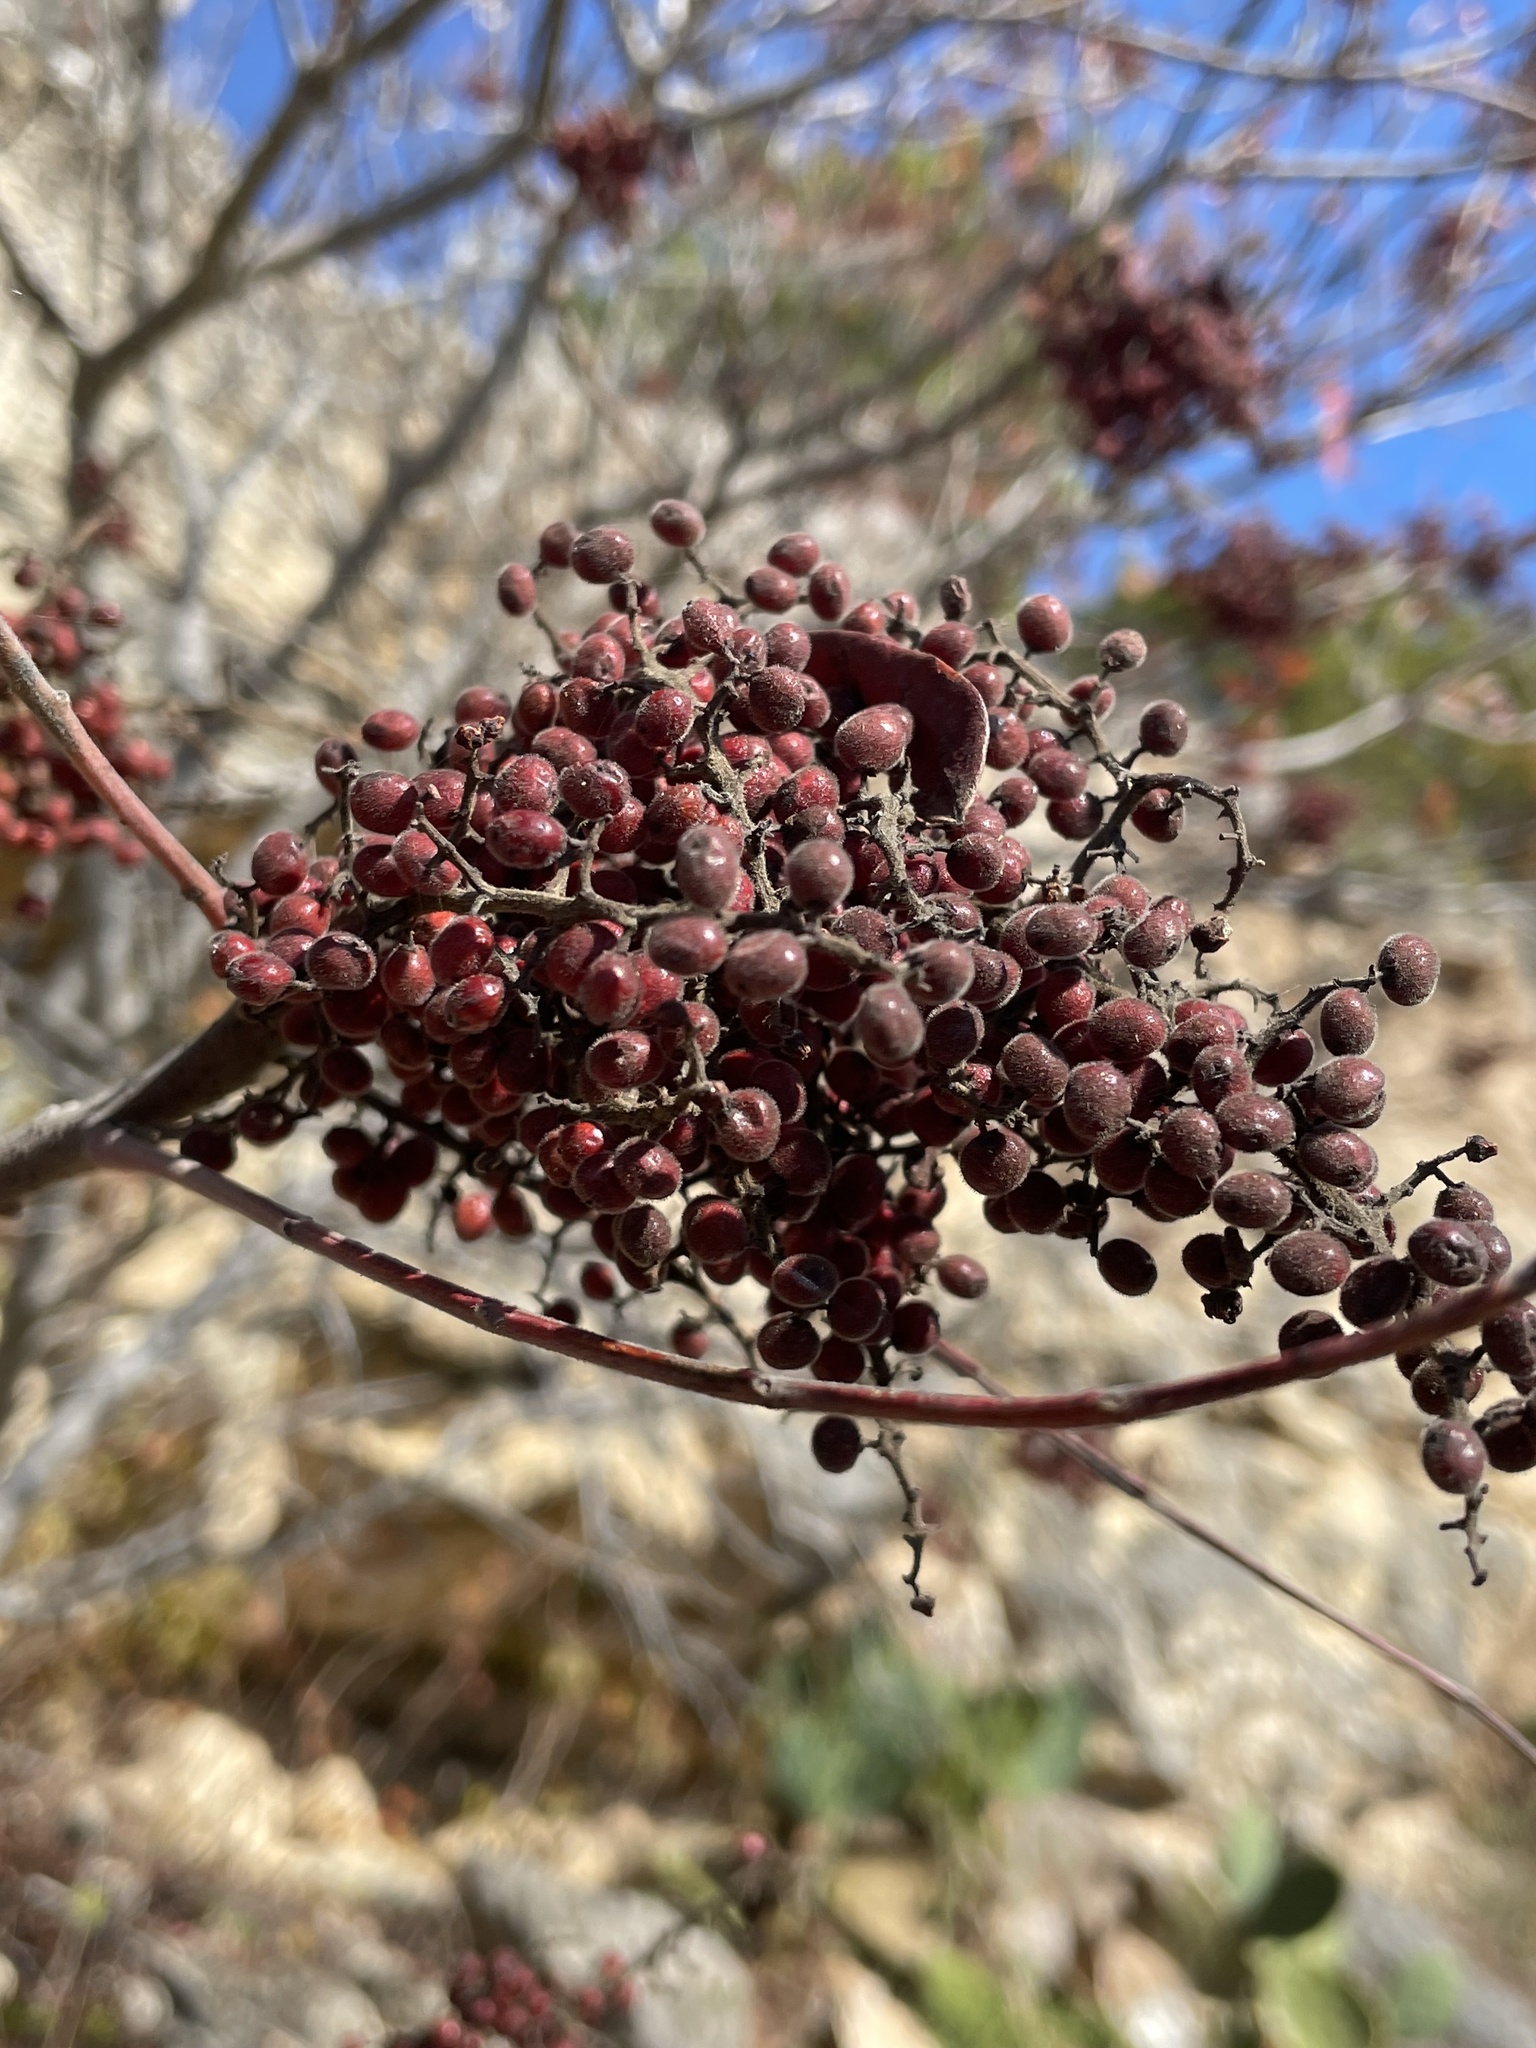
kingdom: Plantae
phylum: Tracheophyta
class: Magnoliopsida
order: Sapindales
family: Anacardiaceae
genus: Rhus
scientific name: Rhus lanceolata
